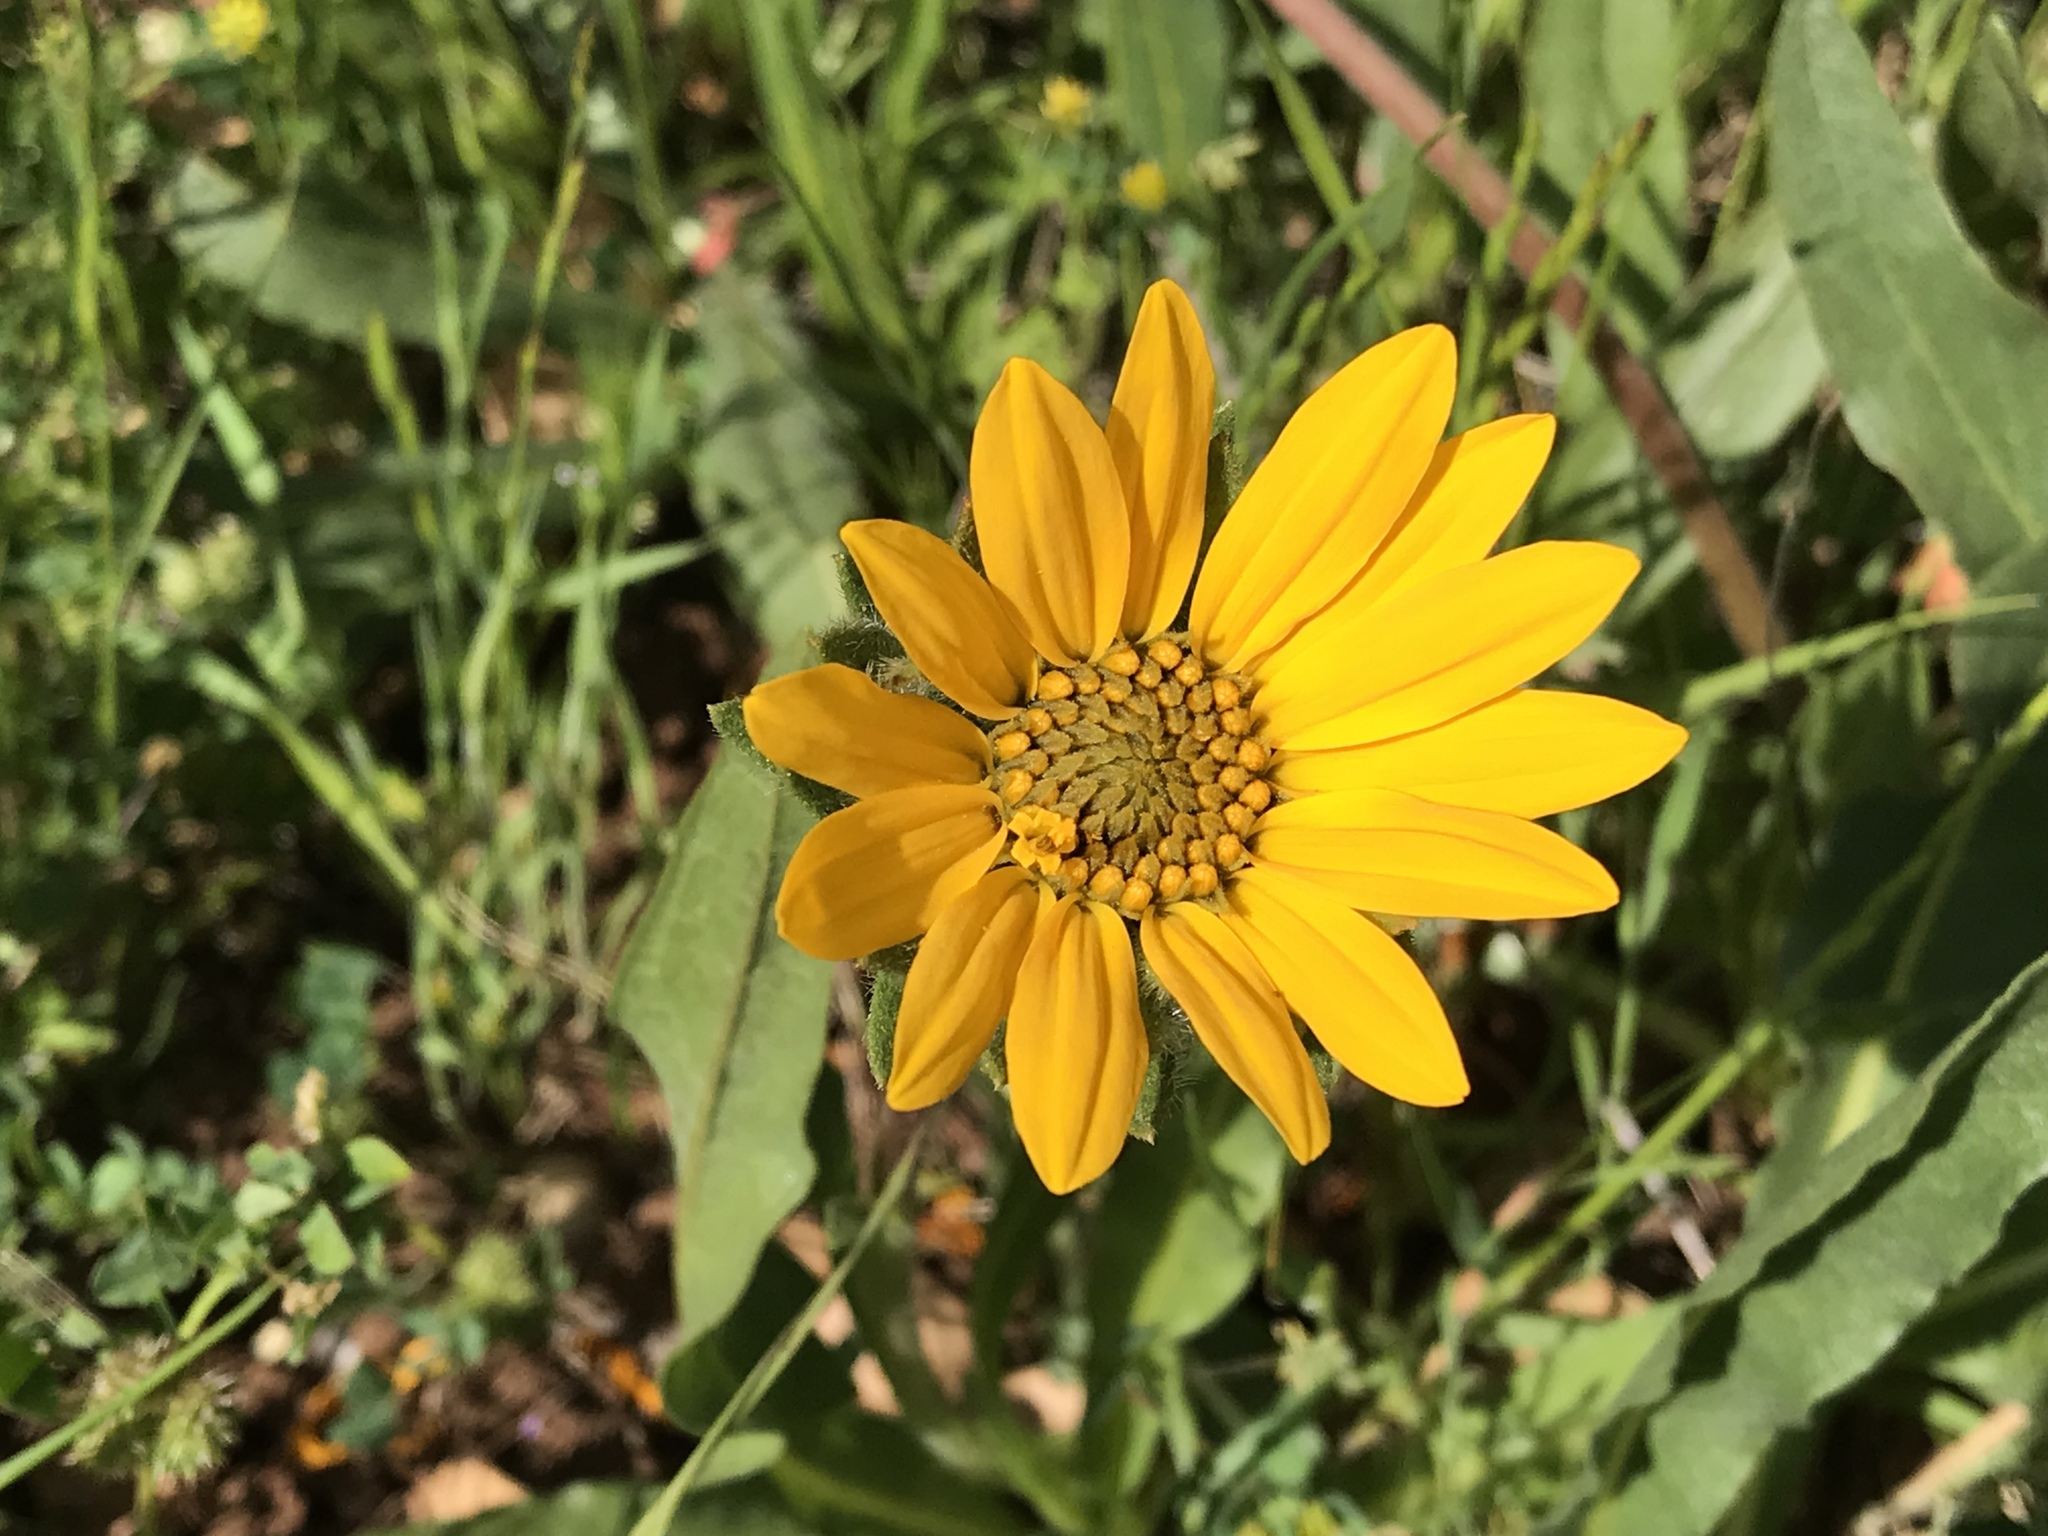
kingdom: Plantae
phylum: Tracheophyta
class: Magnoliopsida
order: Asterales
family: Asteraceae
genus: Wyethia
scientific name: Wyethia angustifolia
